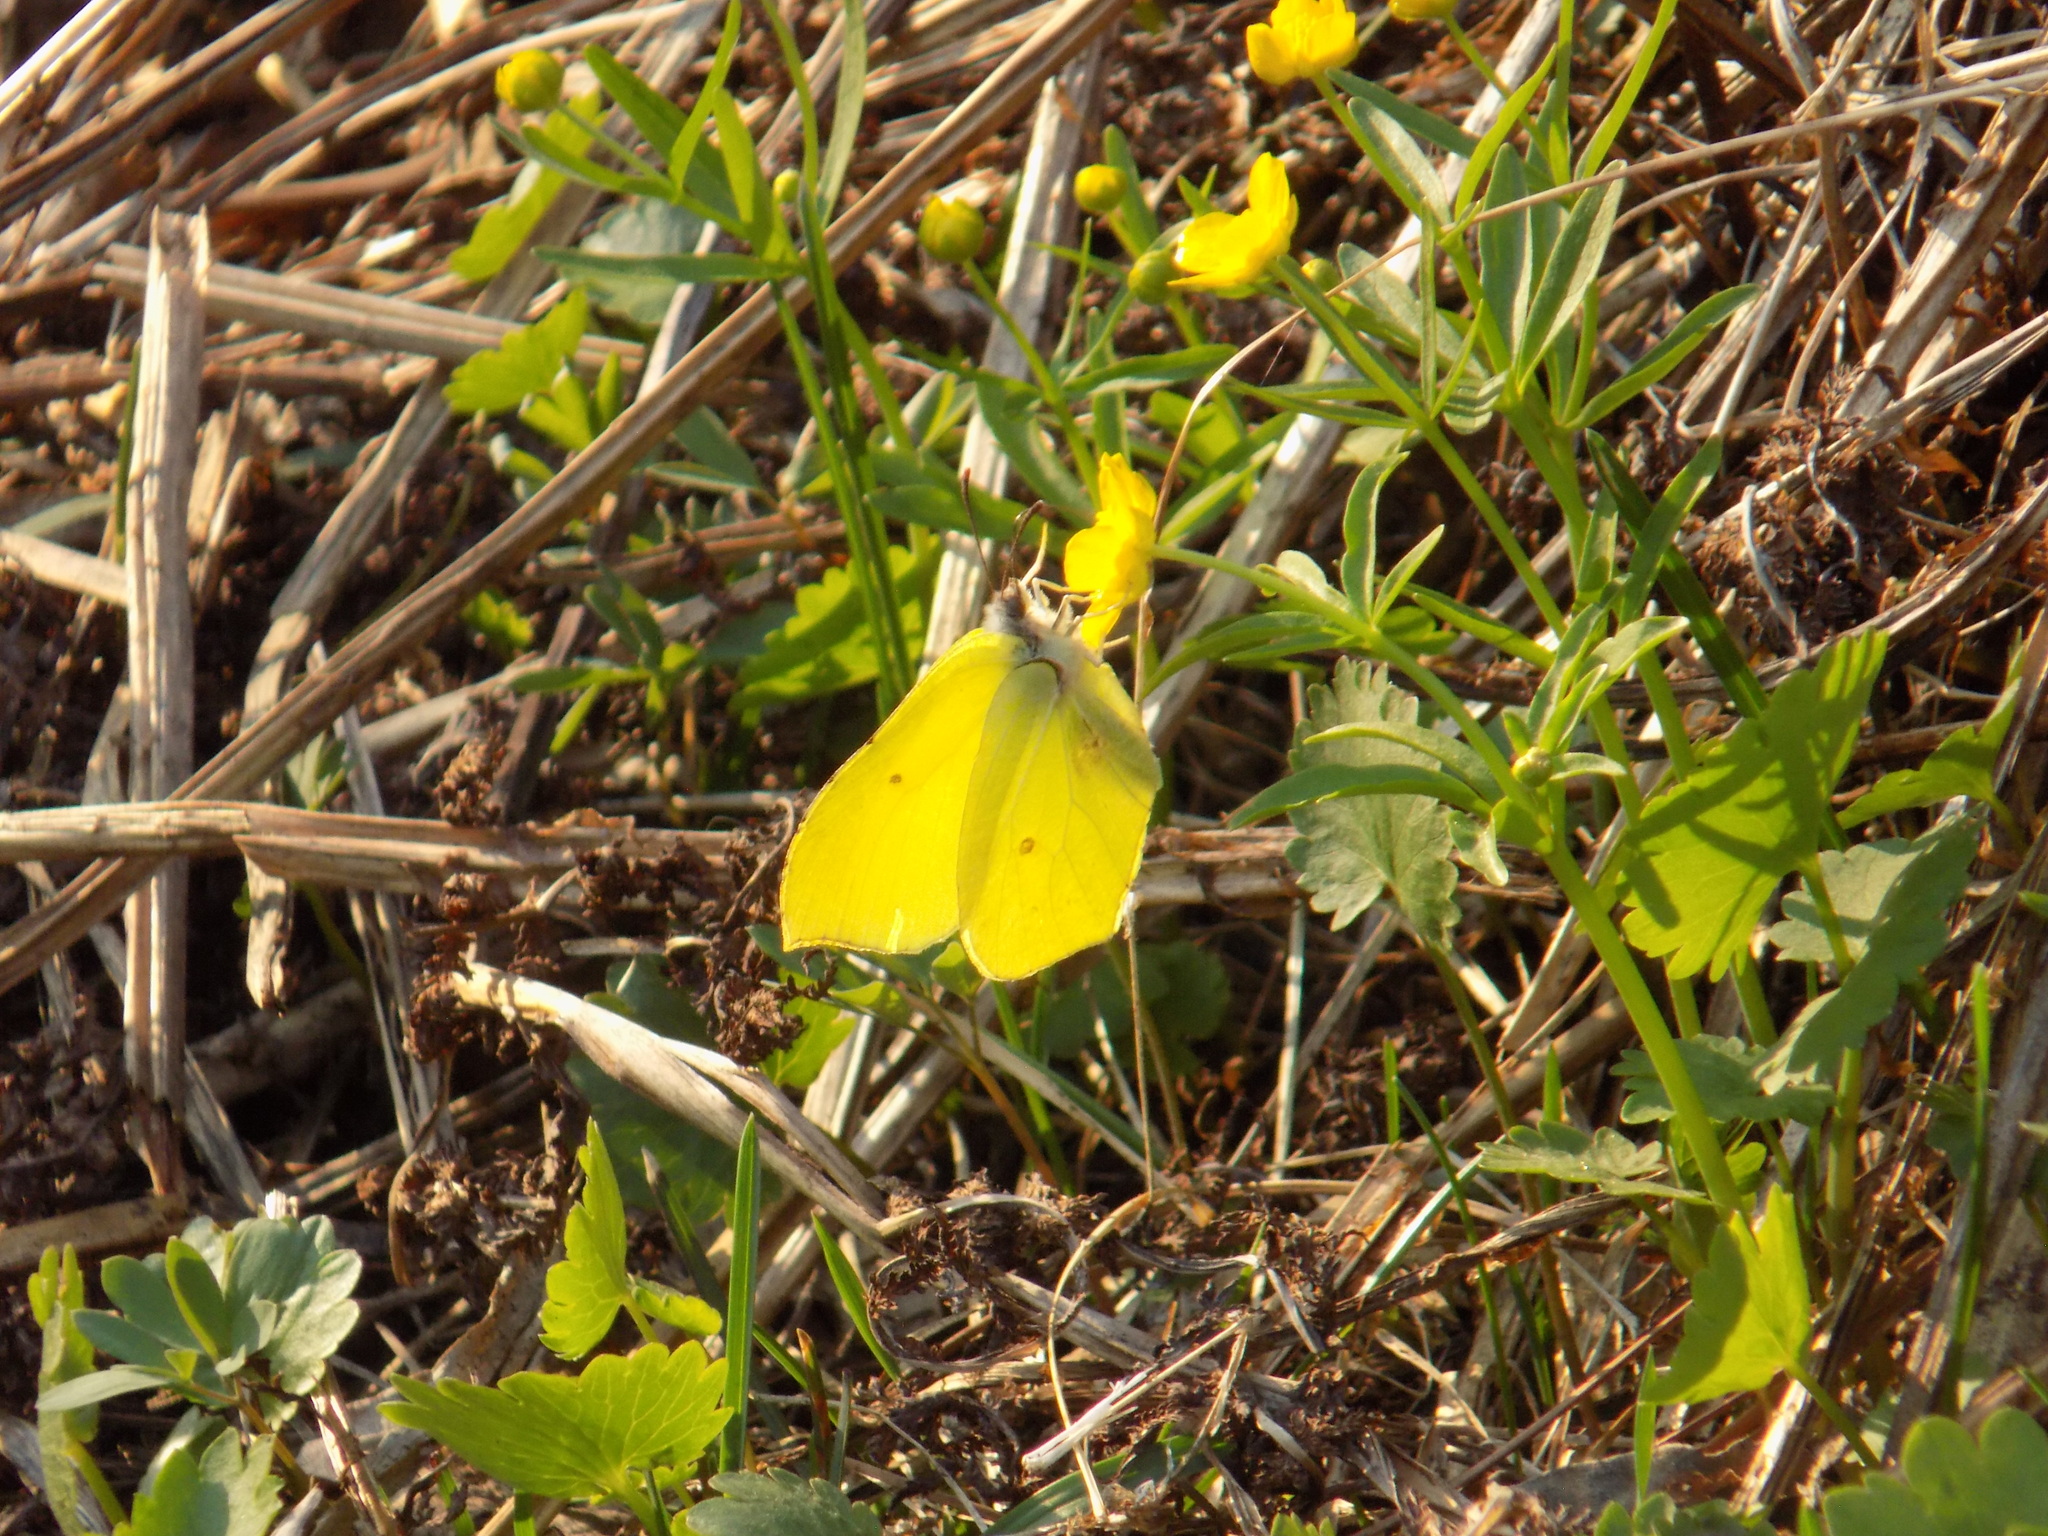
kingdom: Animalia
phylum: Arthropoda
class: Insecta
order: Lepidoptera
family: Pieridae
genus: Gonepteryx
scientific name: Gonepteryx rhamni
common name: Brimstone
